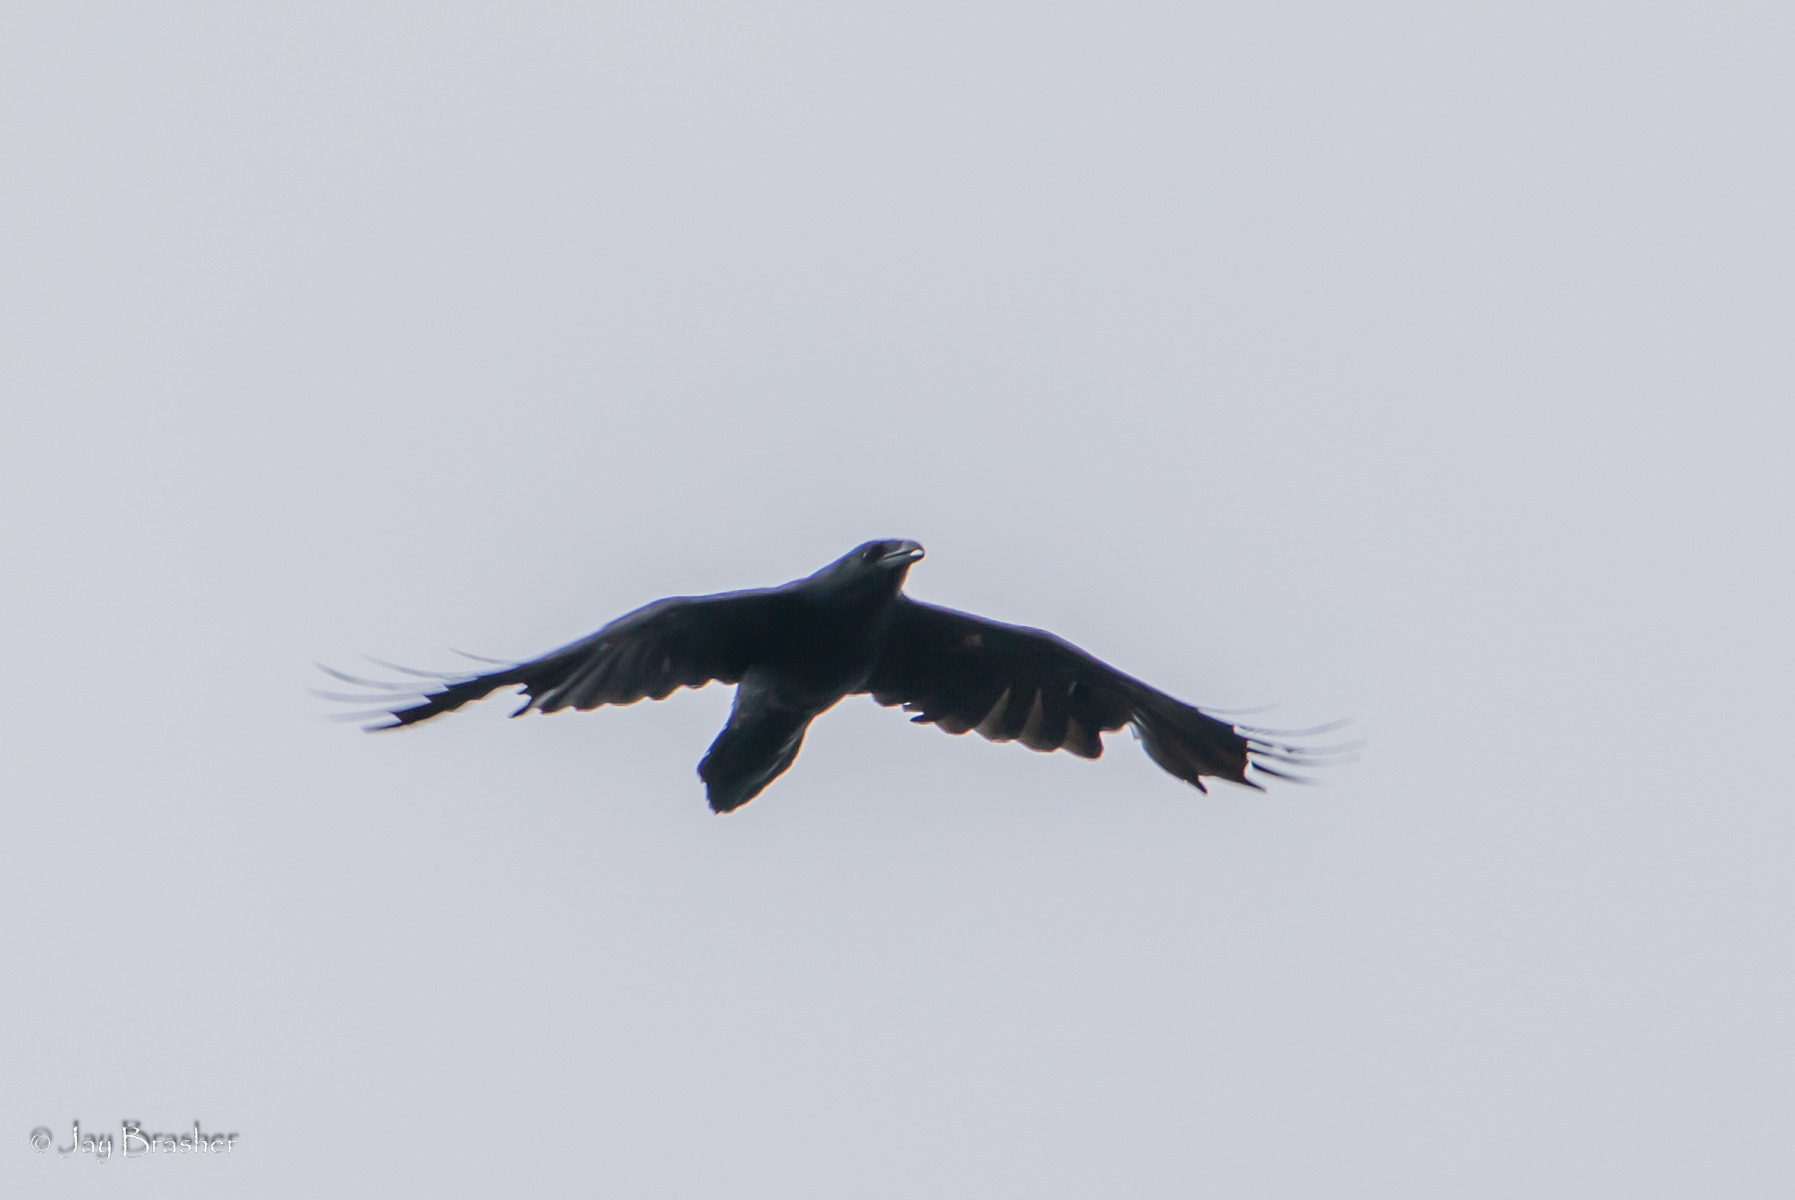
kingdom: Animalia
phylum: Chordata
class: Aves
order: Passeriformes
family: Corvidae
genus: Corvus
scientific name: Corvus corax
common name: Common raven
